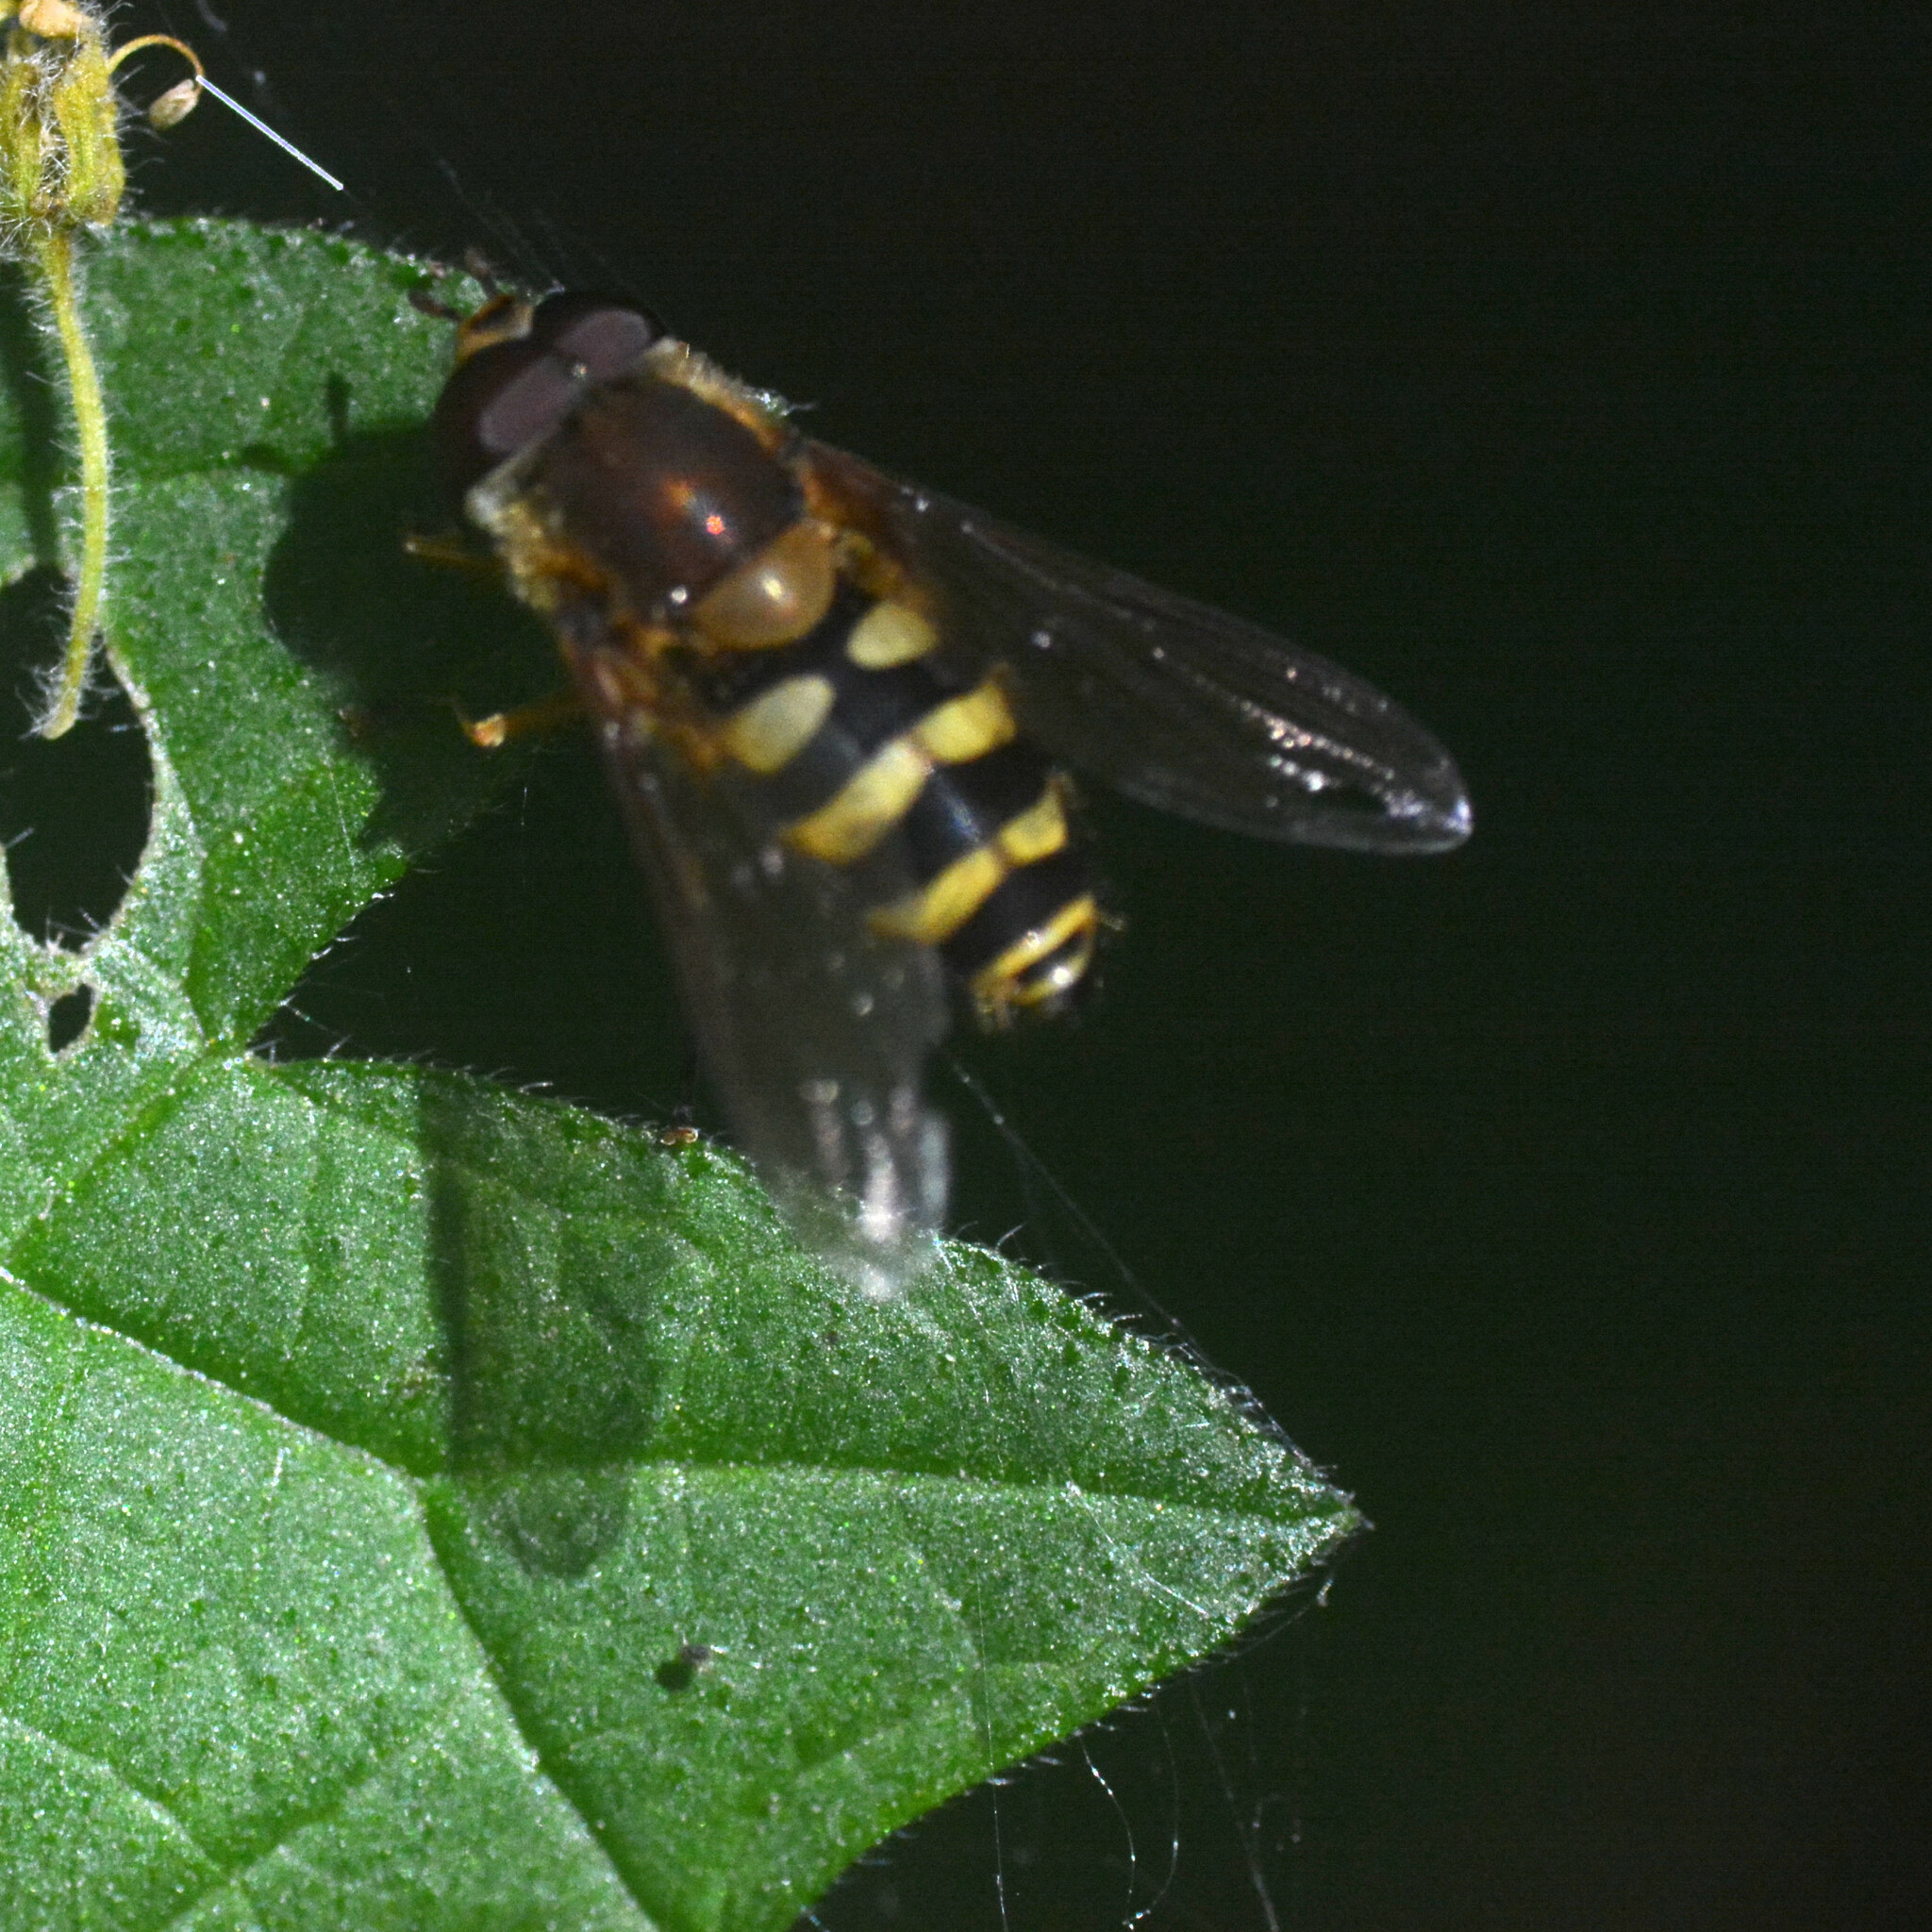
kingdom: Animalia
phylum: Arthropoda
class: Insecta
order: Diptera
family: Syrphidae
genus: Syrphus
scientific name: Syrphus
